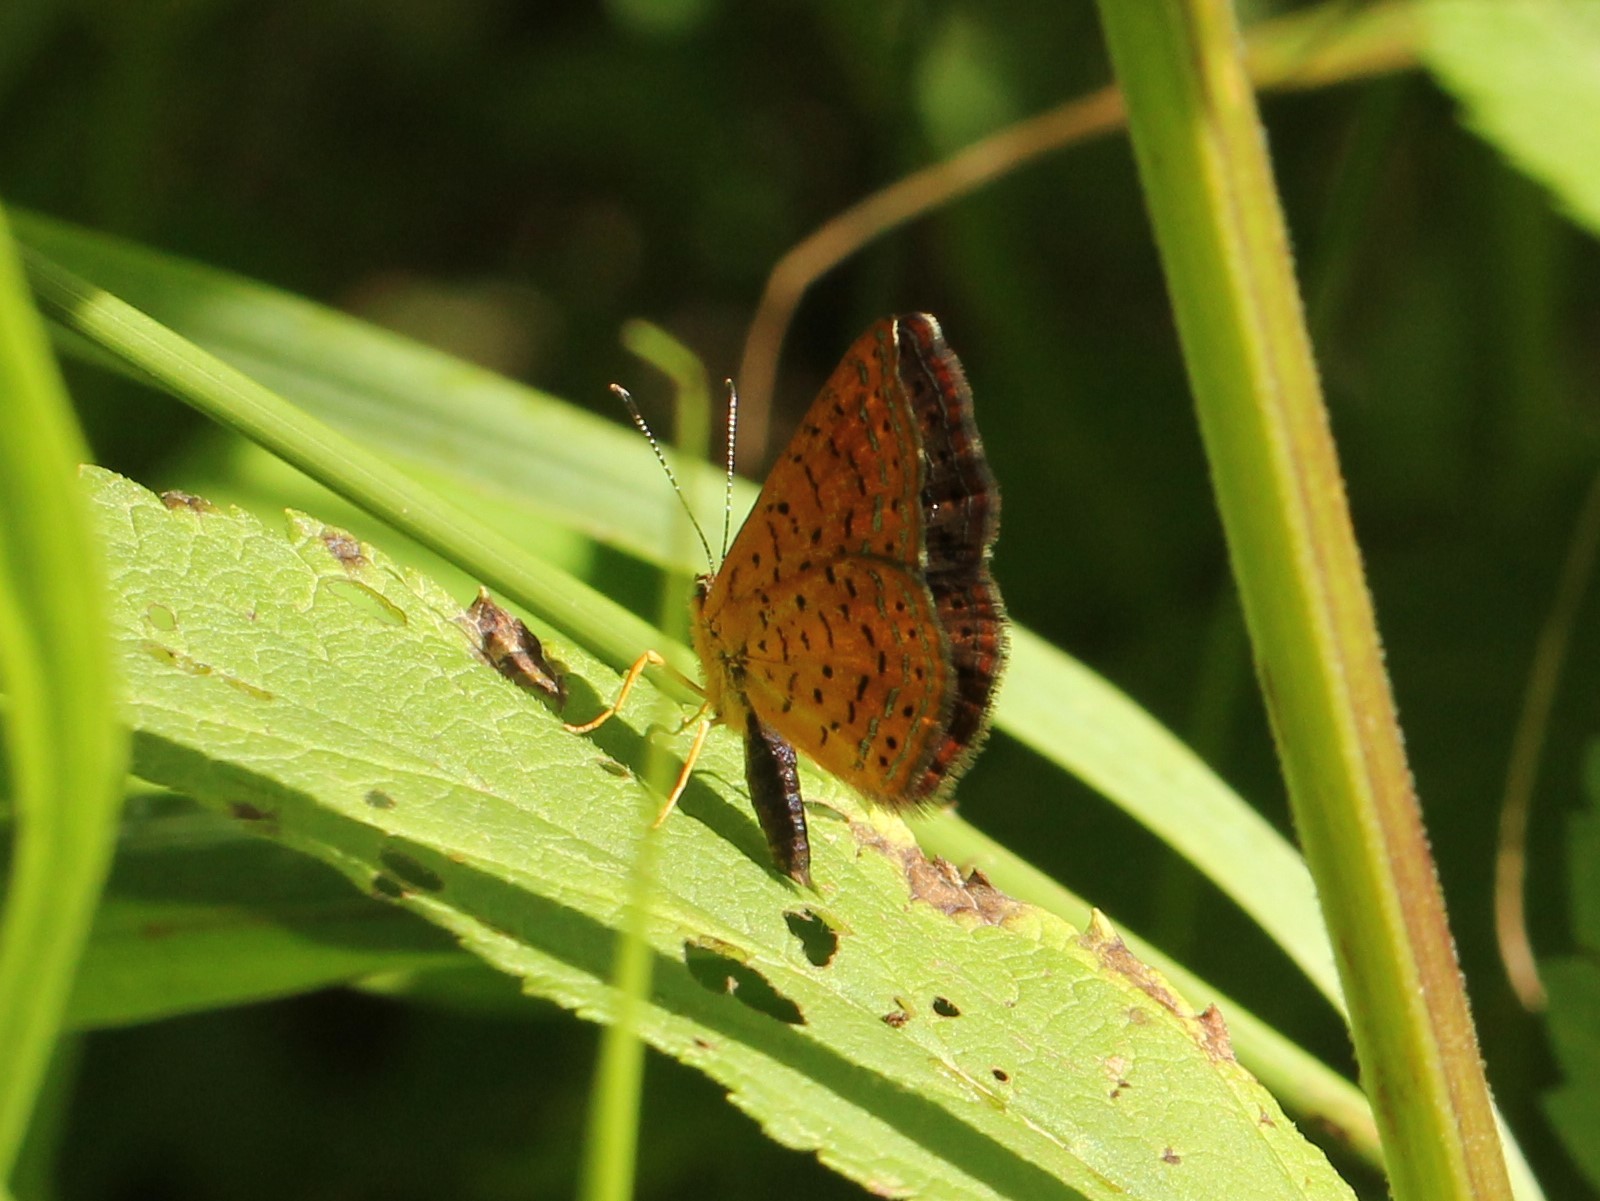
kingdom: Animalia
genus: Calephelis
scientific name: Calephelis borealis
